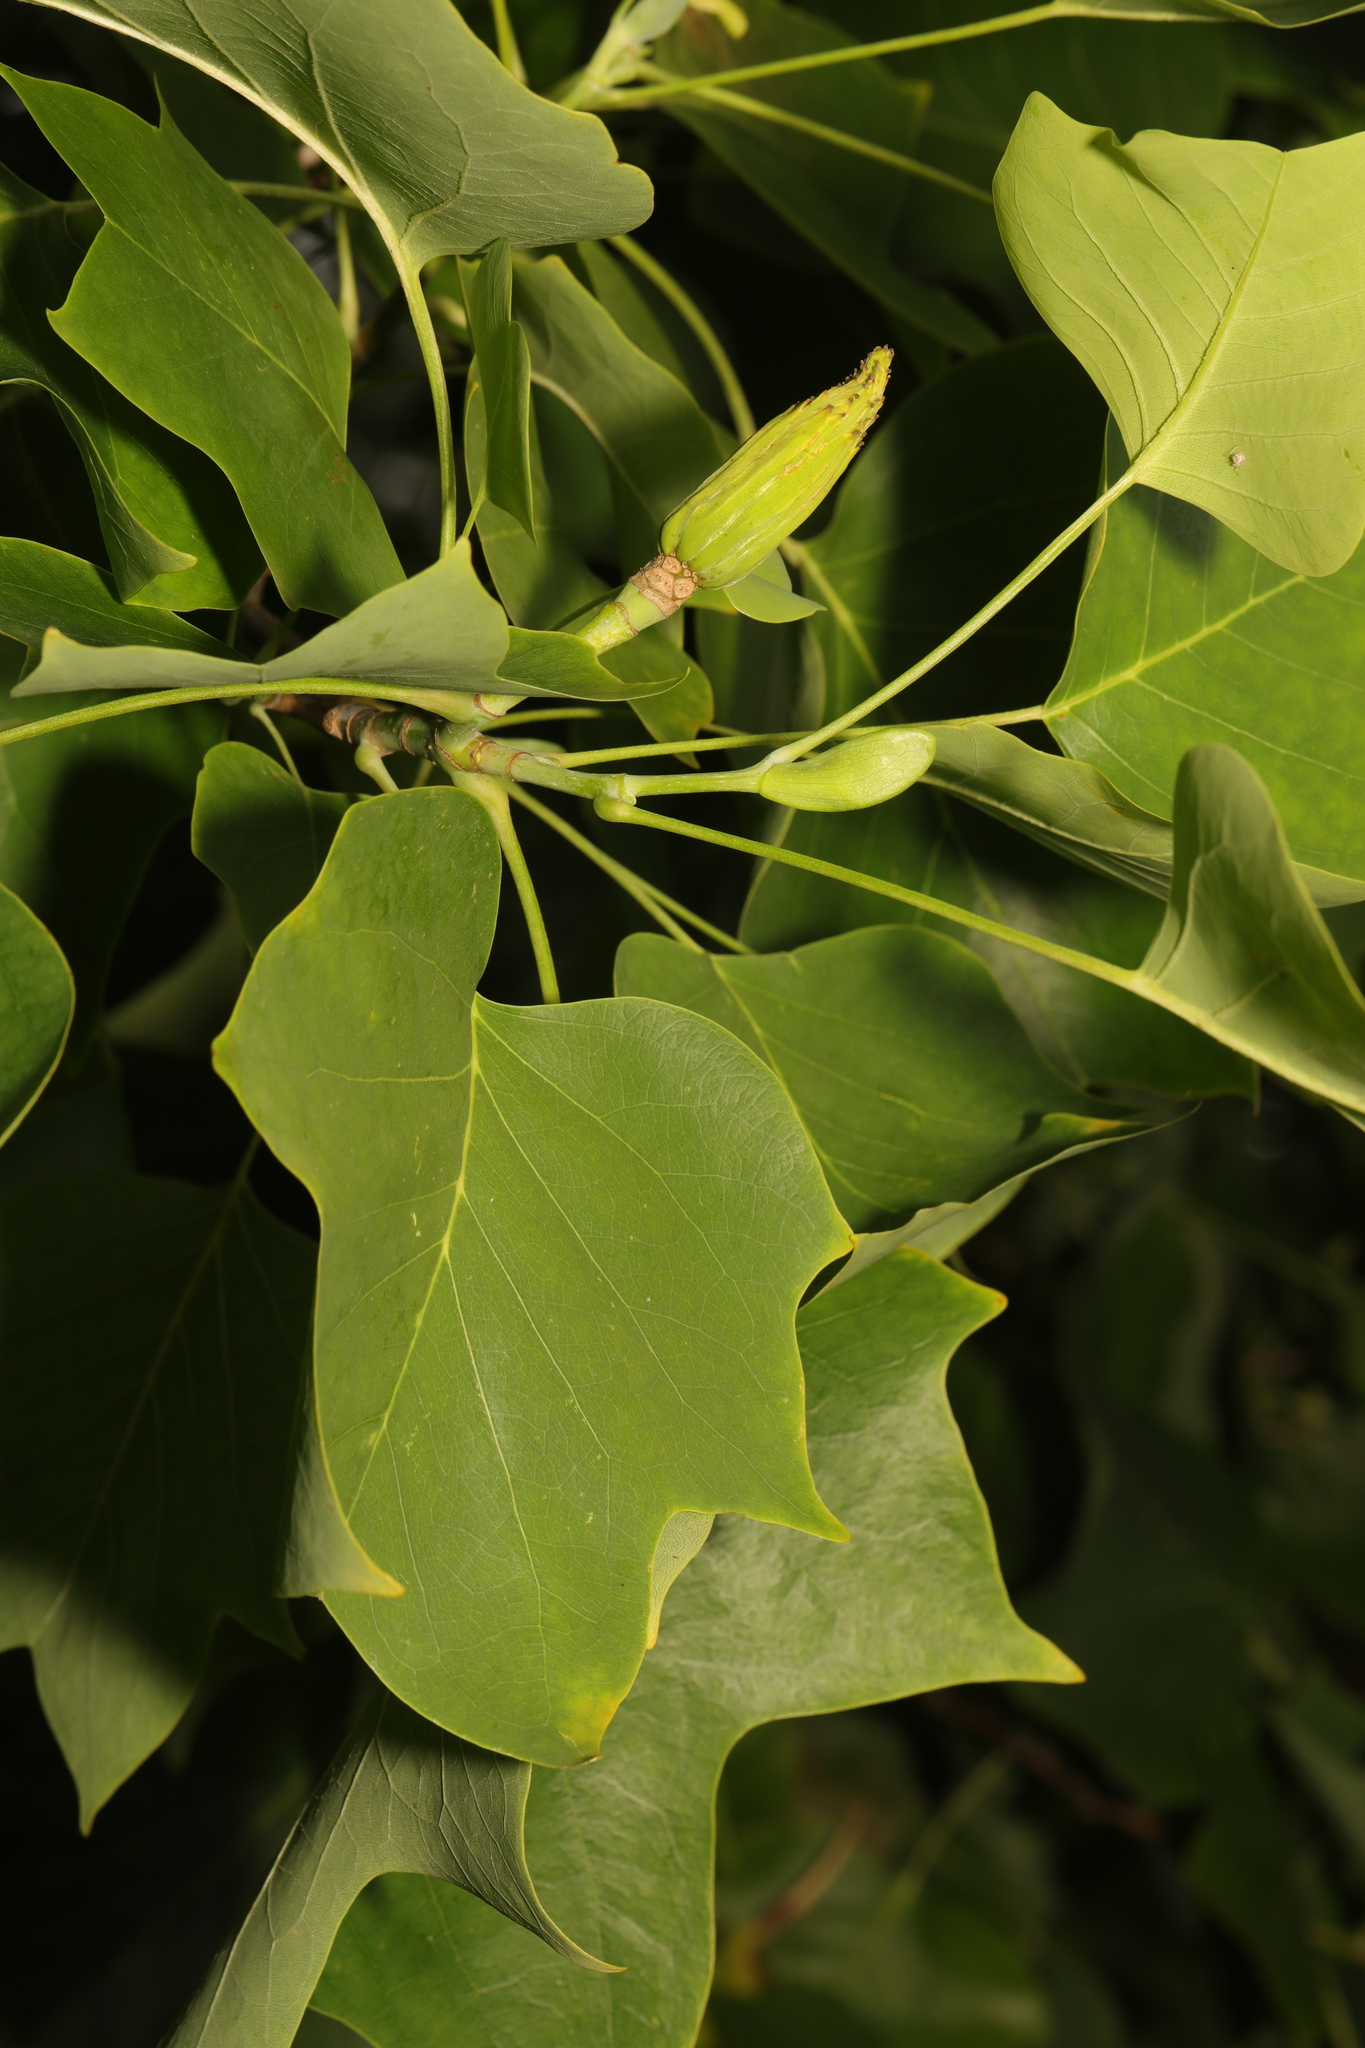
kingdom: Plantae
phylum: Tracheophyta
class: Magnoliopsida
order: Magnoliales
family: Magnoliaceae
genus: Liriodendron
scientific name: Liriodendron tulipifera
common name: Tulip tree
